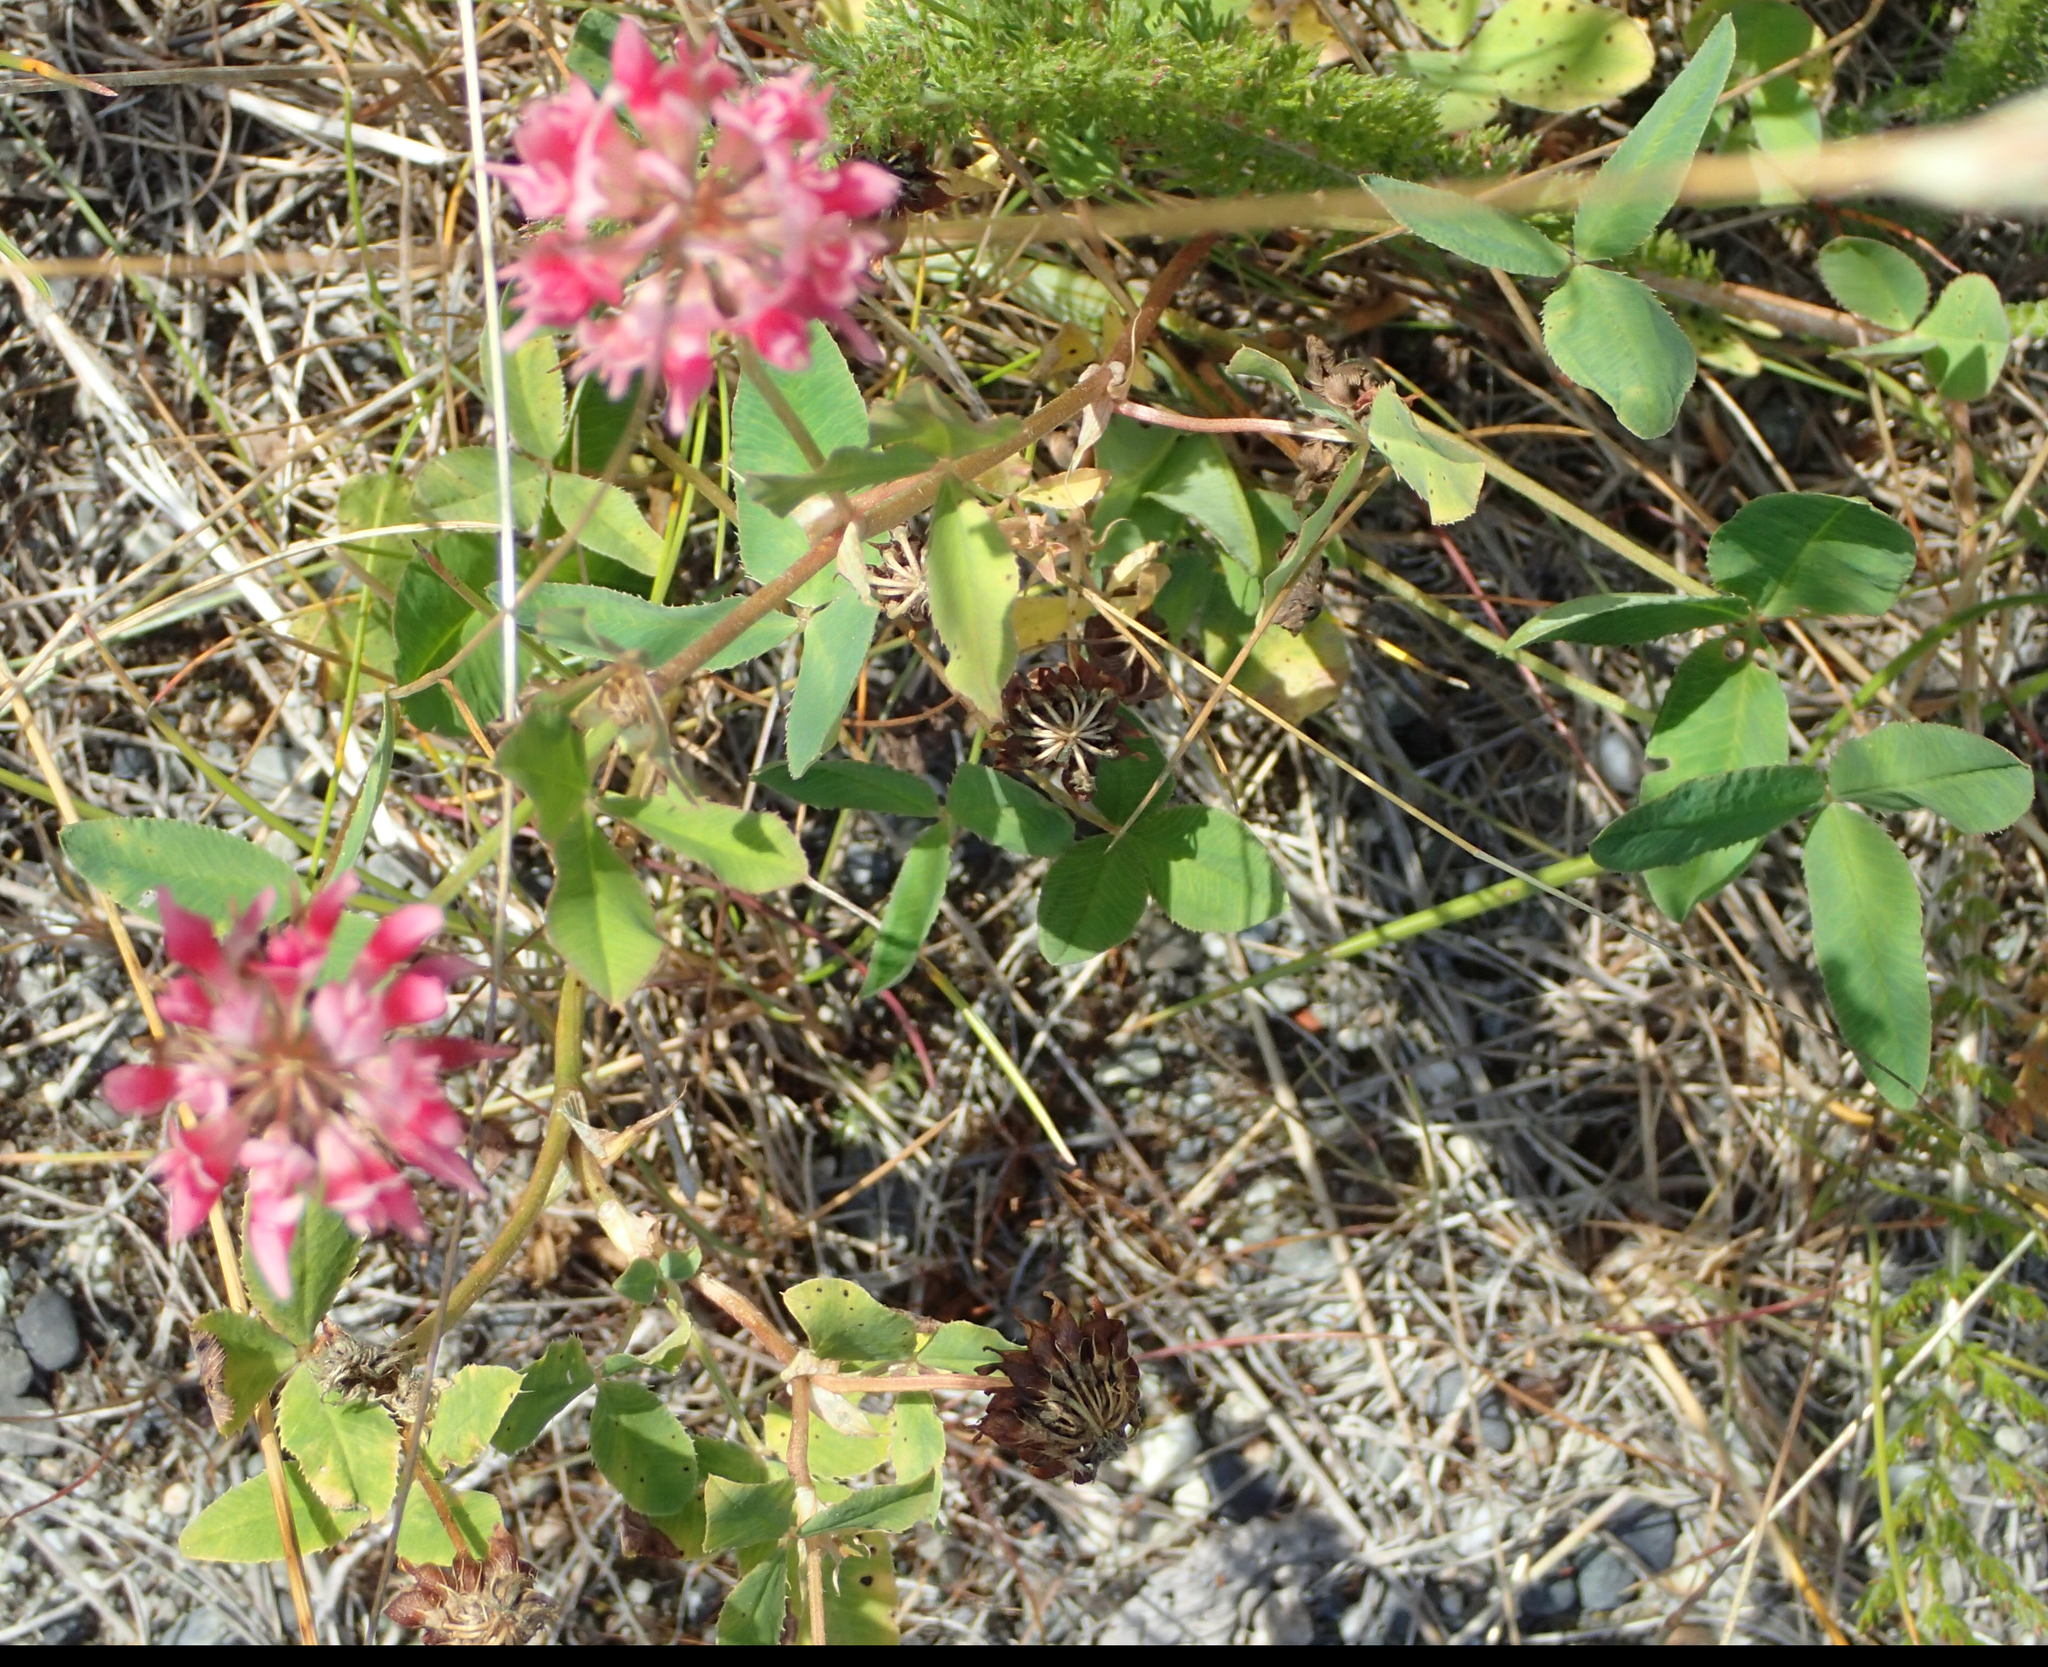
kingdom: Plantae
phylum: Tracheophyta
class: Magnoliopsida
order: Fabales
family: Fabaceae
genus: Trifolium
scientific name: Trifolium hybridum
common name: Alsike clover
